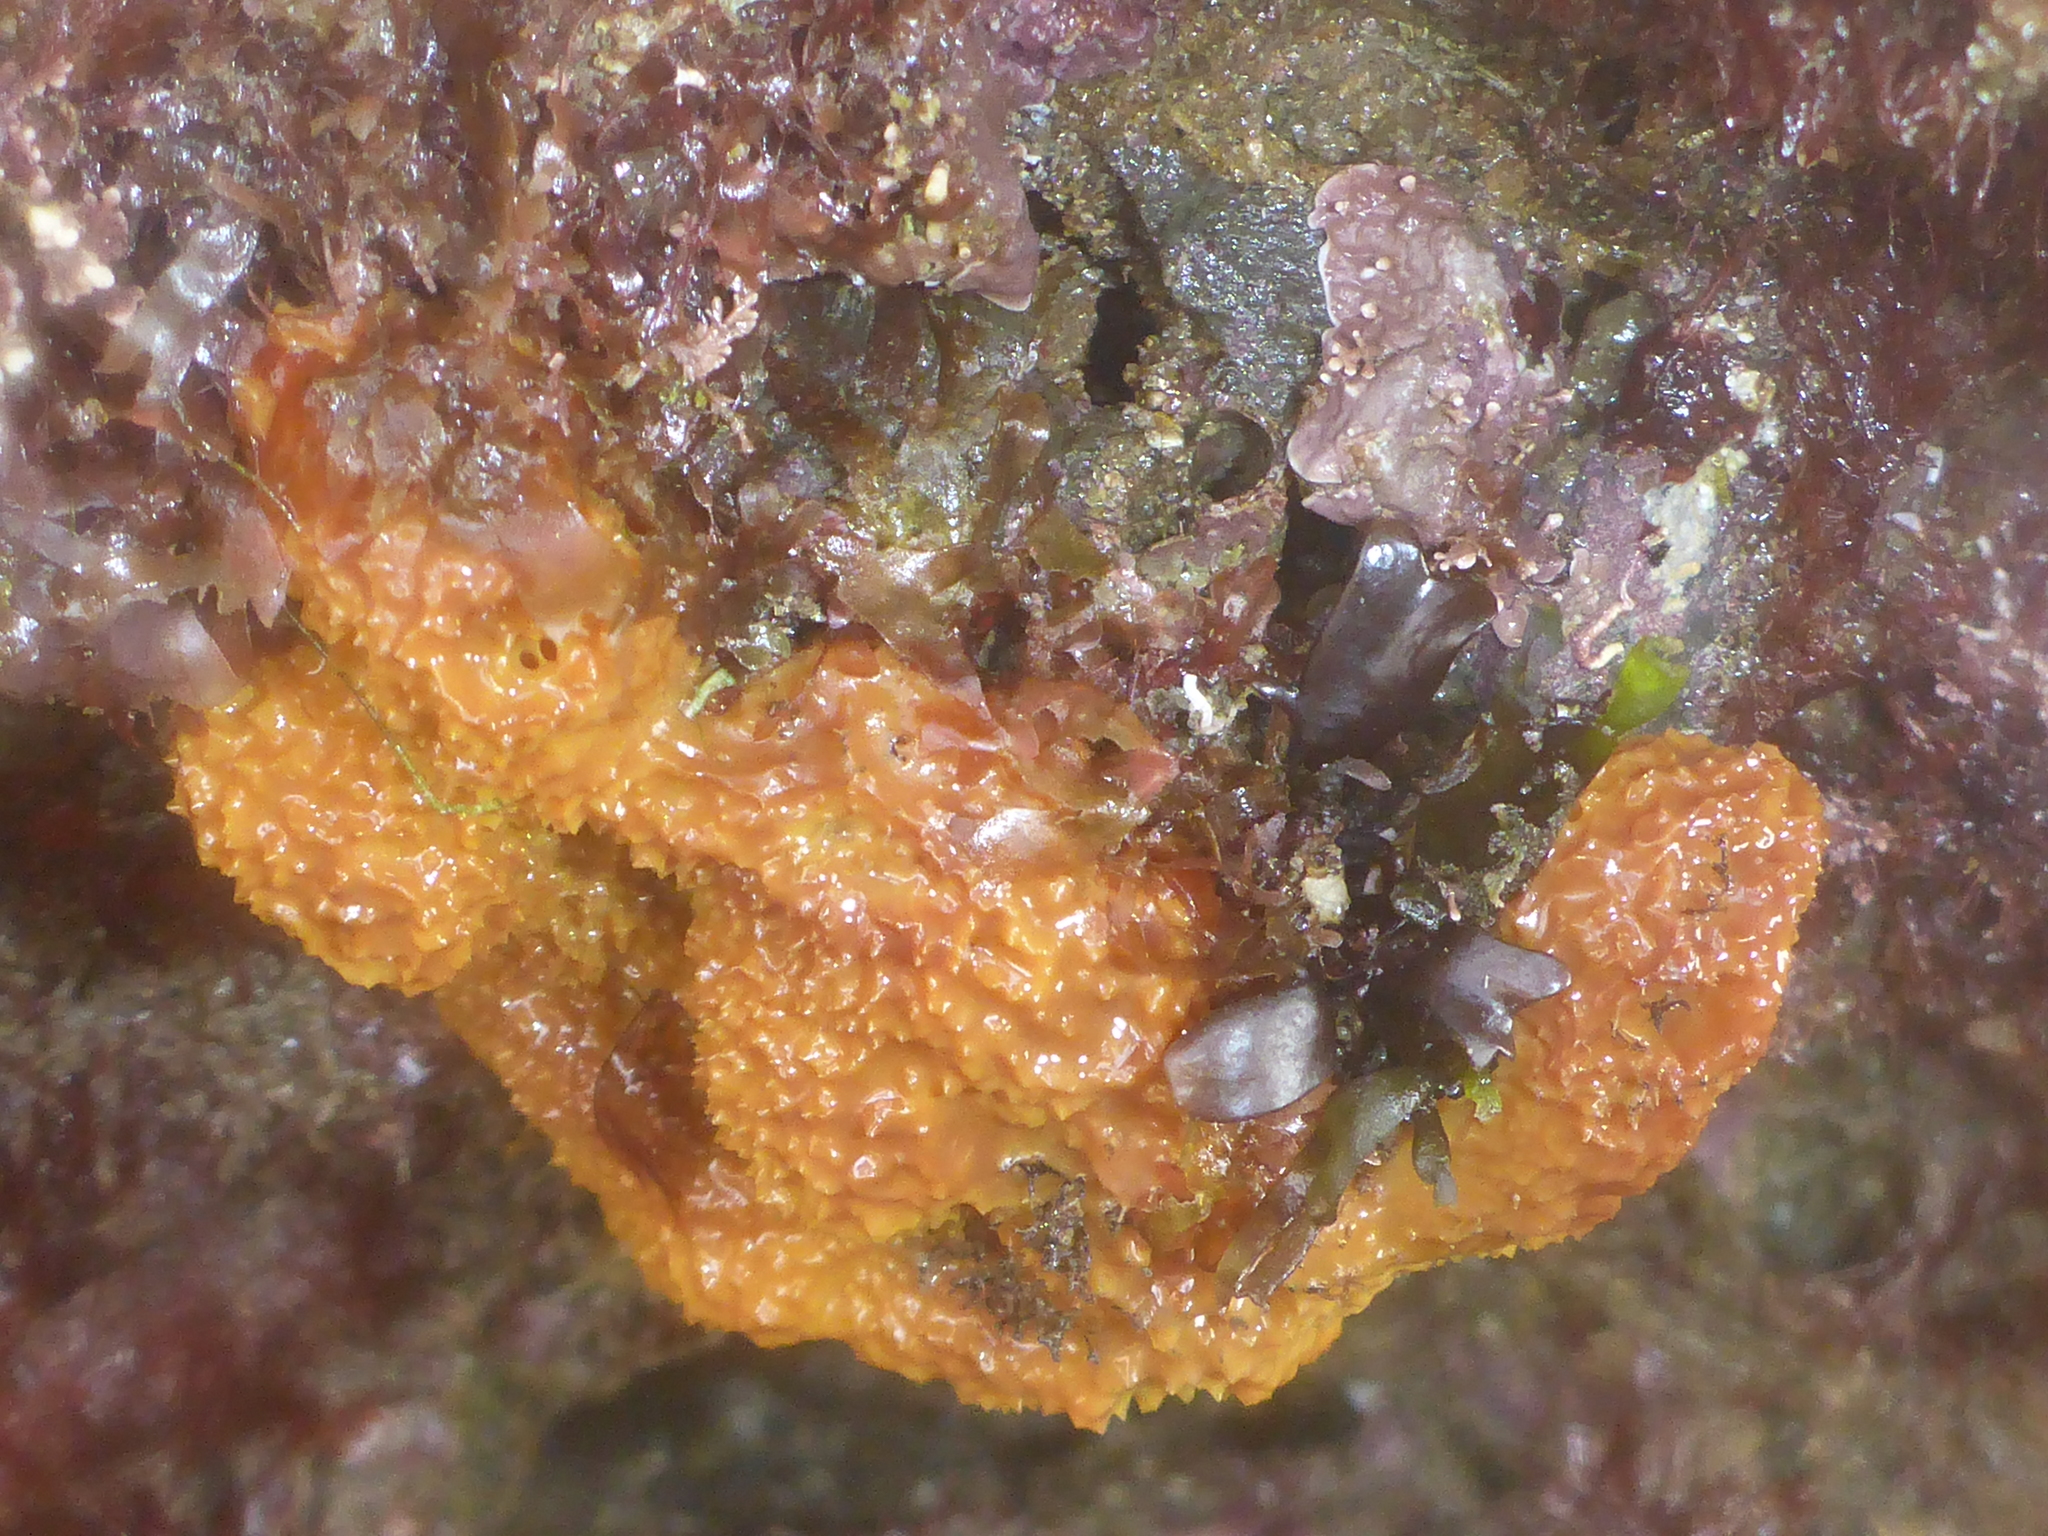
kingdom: Animalia
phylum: Porifera
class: Demospongiae
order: Verongiida
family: Aplysinidae
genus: Aiolochroia
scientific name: Aiolochroia thiona
